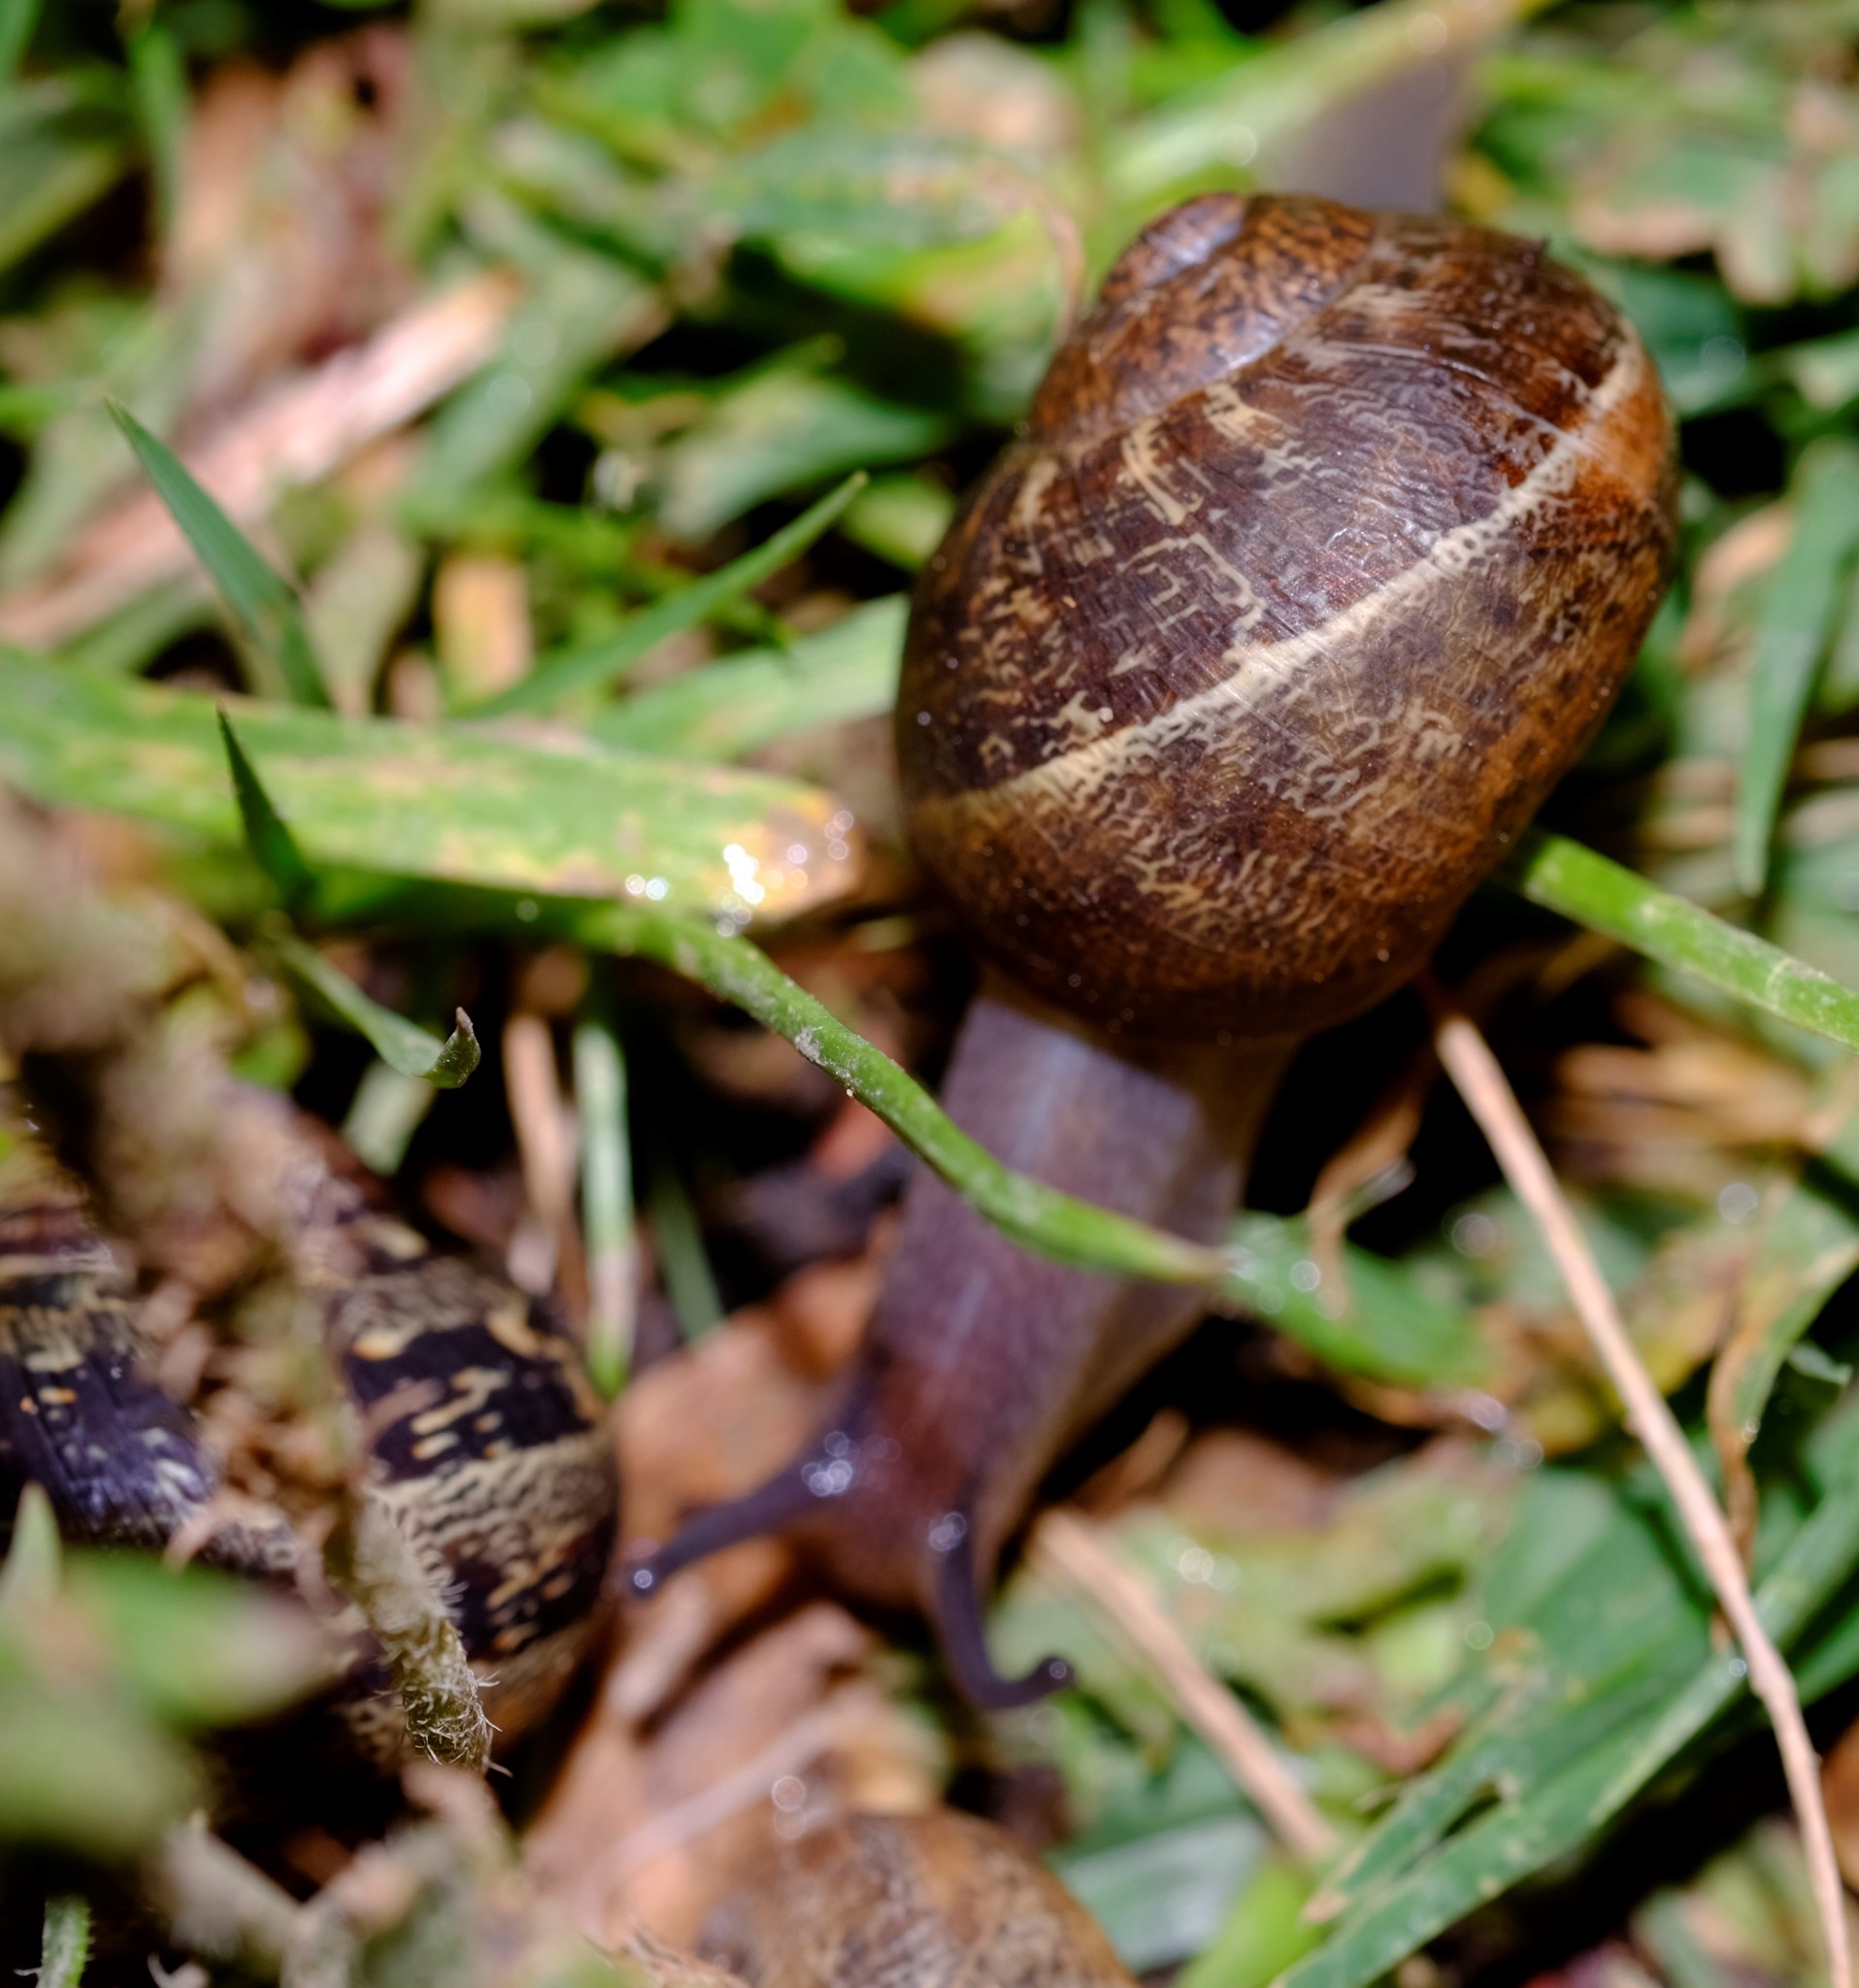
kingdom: Animalia
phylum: Mollusca
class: Gastropoda
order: Stylommatophora
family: Helicidae
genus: Cornu
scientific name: Cornu aspersum
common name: Brown garden snail
